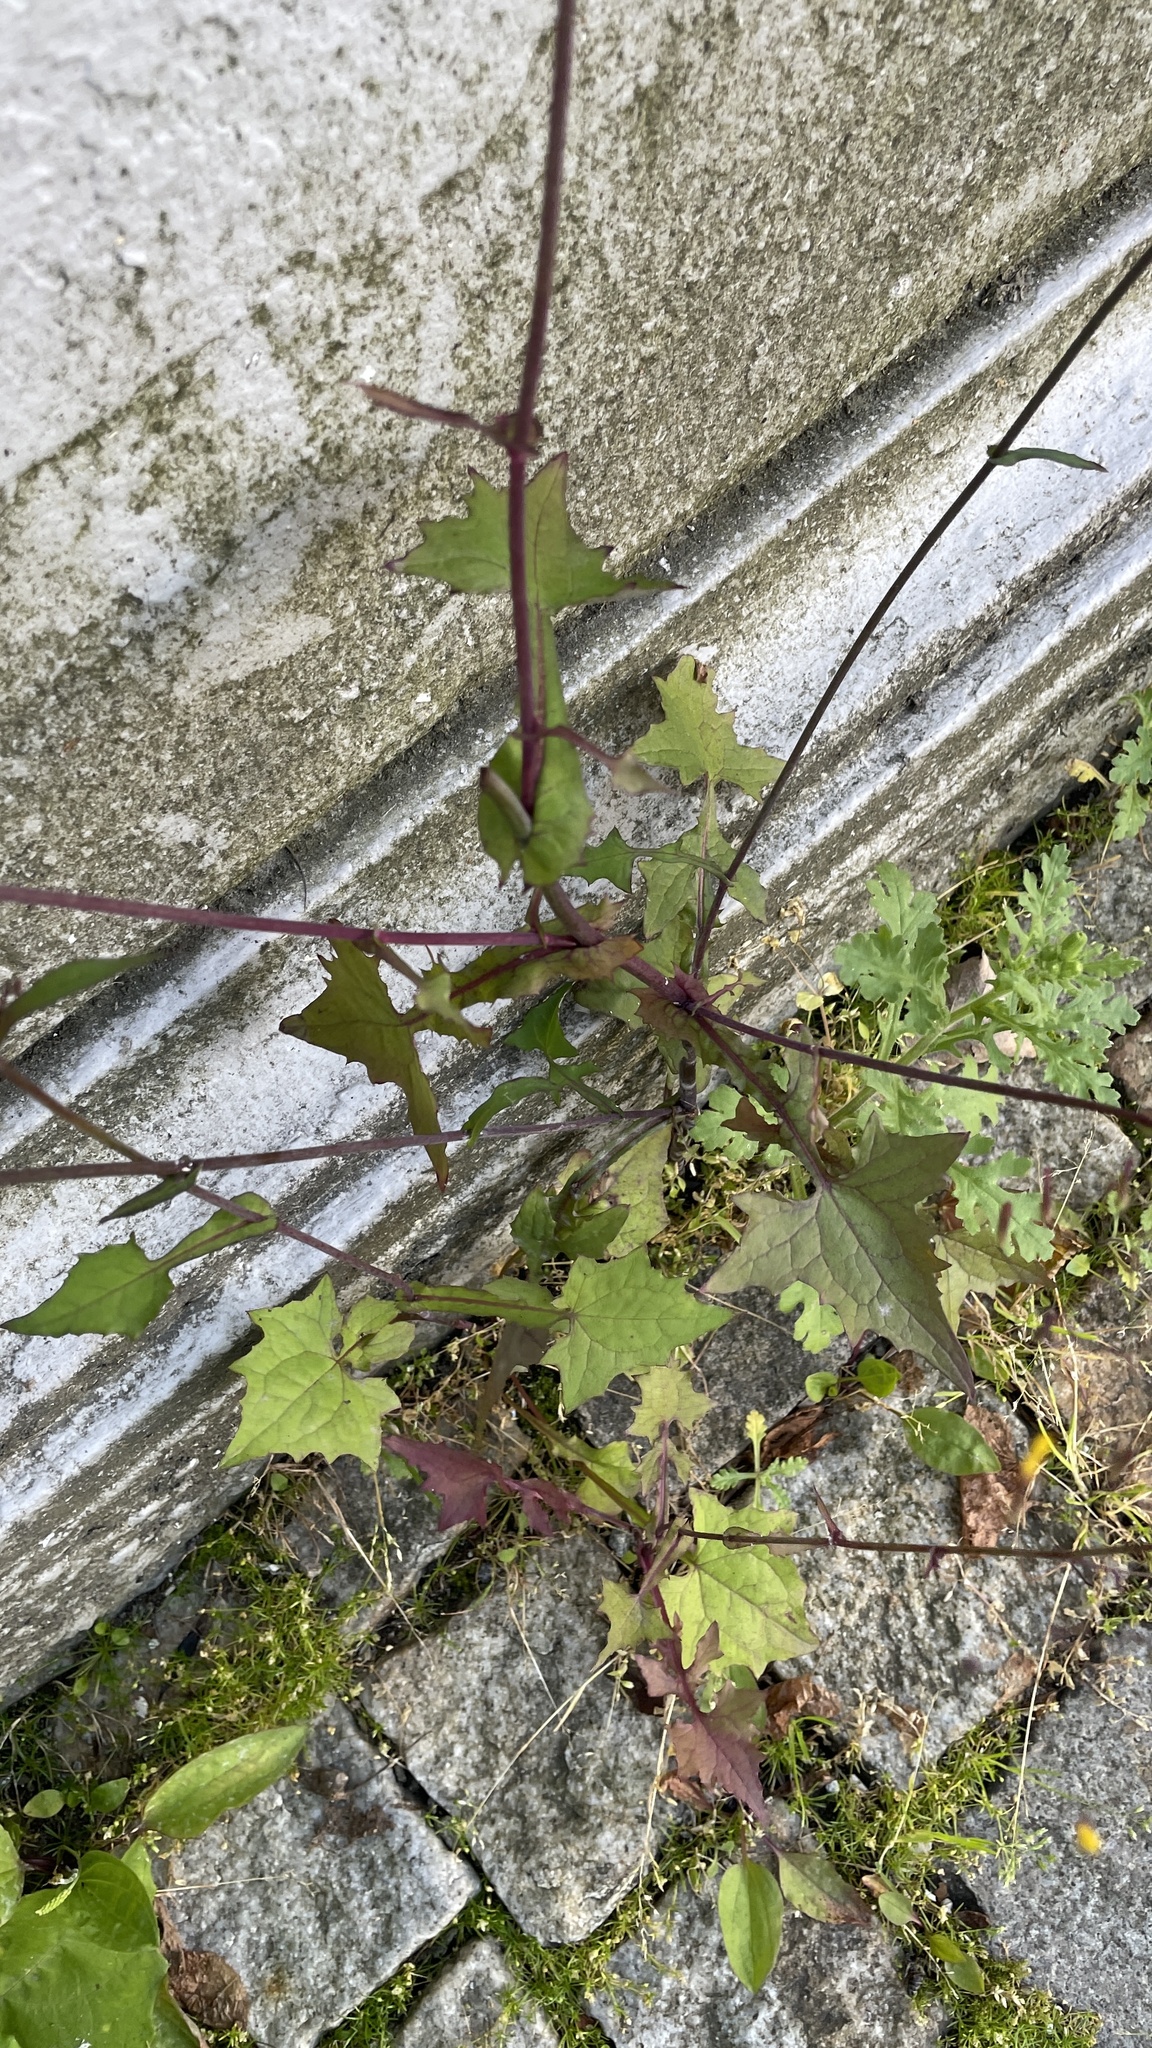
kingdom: Plantae
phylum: Tracheophyta
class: Magnoliopsida
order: Asterales
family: Asteraceae
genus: Mycelis
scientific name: Mycelis muralis
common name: Wall lettuce
